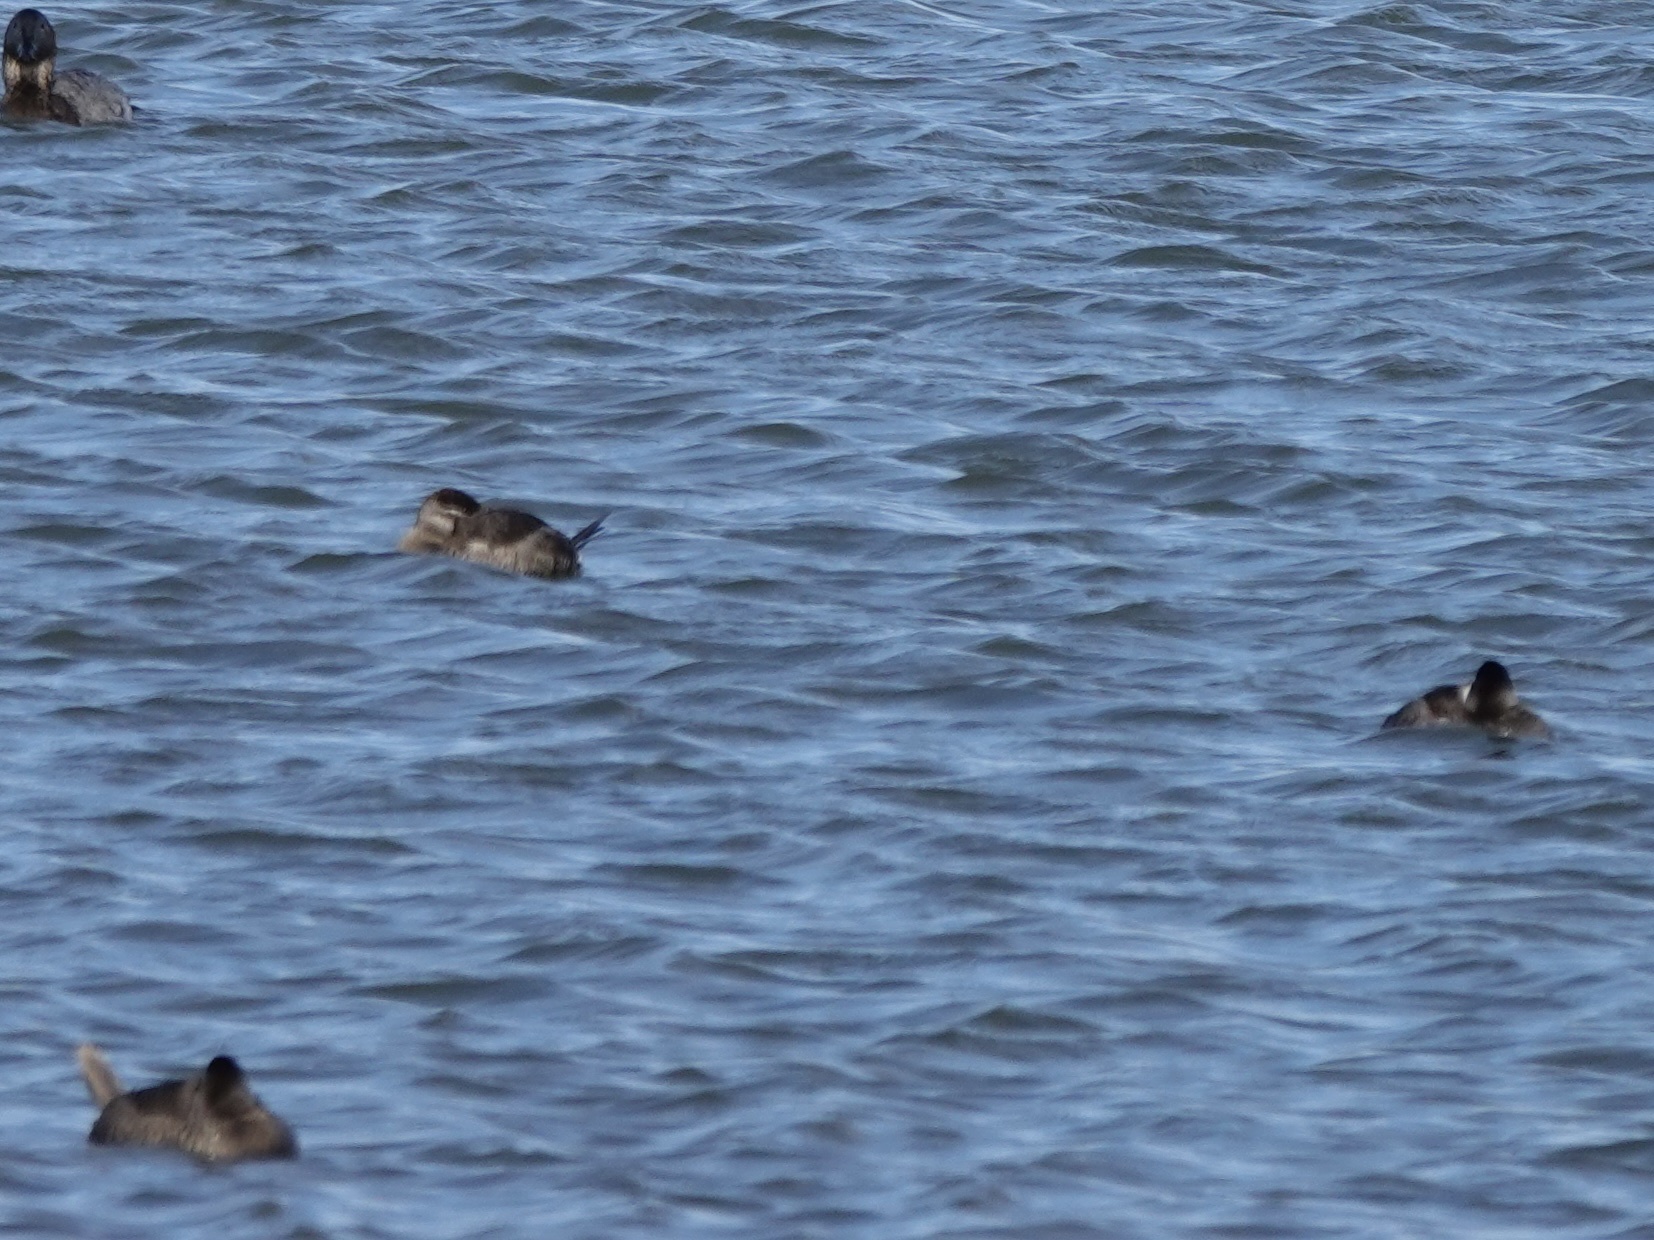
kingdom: Animalia
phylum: Chordata
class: Aves
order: Anseriformes
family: Anatidae
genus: Oxyura
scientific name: Oxyura jamaicensis
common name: Ruddy duck
